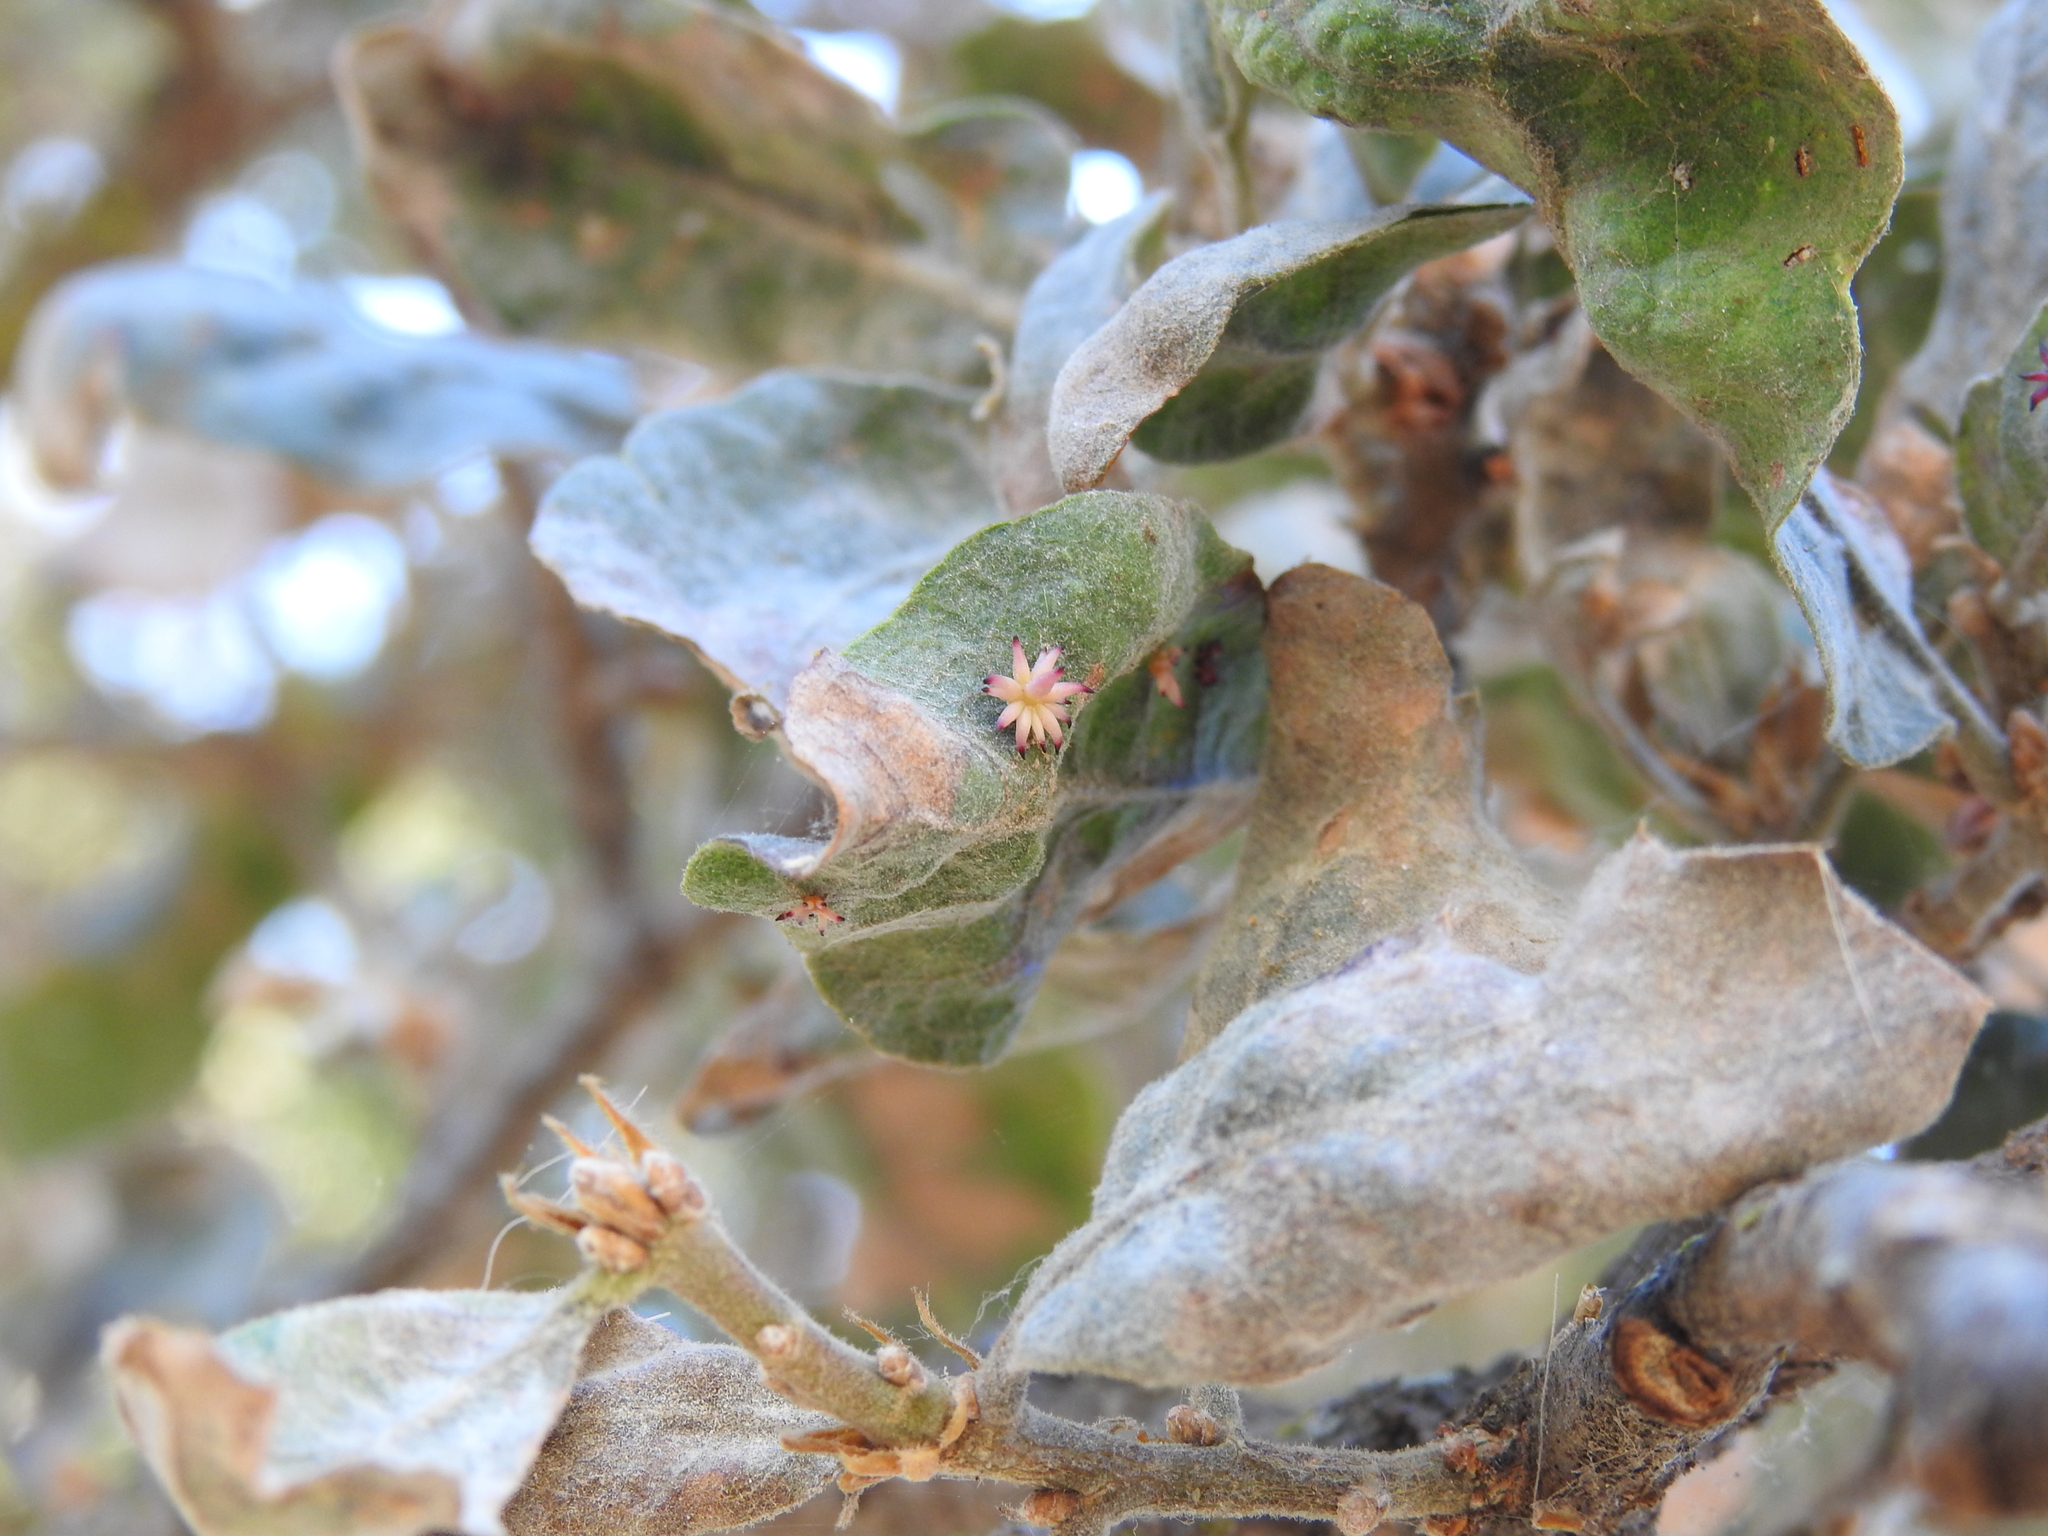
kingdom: Animalia
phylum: Arthropoda
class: Insecta
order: Hymenoptera
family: Cynipidae
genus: Cynips
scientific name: Cynips douglasi
